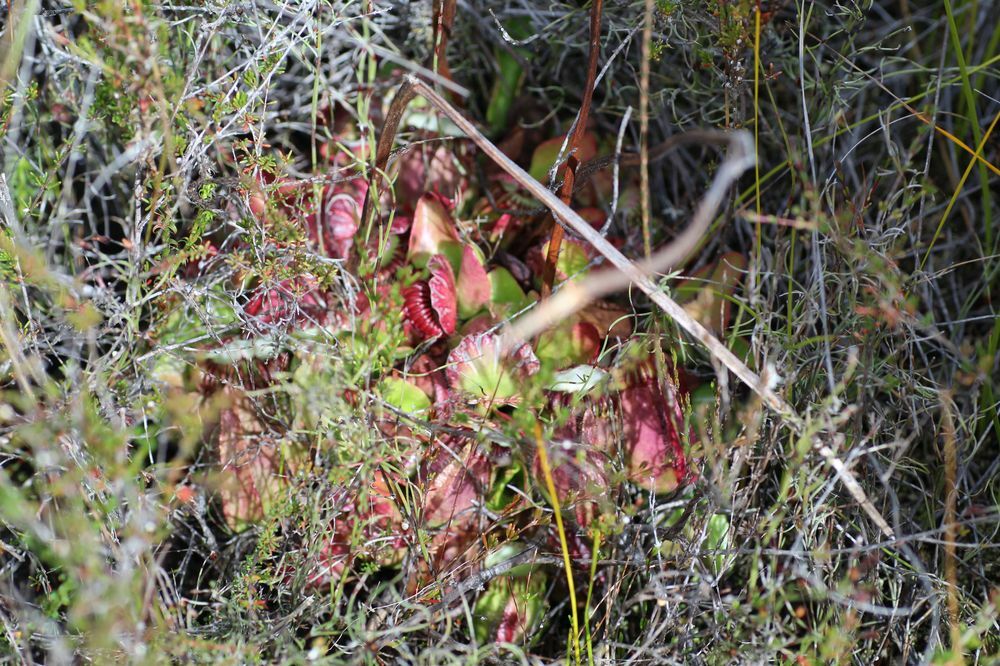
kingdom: Plantae
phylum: Tracheophyta
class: Magnoliopsida
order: Oxalidales
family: Cephalotaceae
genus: Cephalotus
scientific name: Cephalotus follicularis
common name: Australian pitcher plant
